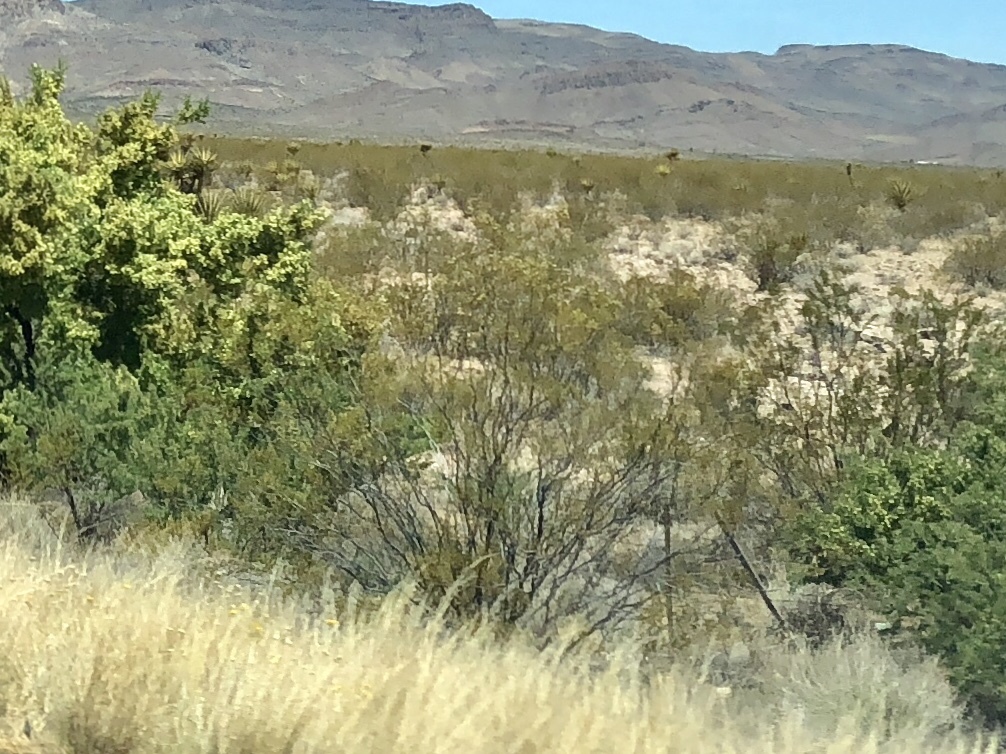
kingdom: Plantae
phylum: Tracheophyta
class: Magnoliopsida
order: Zygophyllales
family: Zygophyllaceae
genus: Larrea
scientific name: Larrea tridentata
